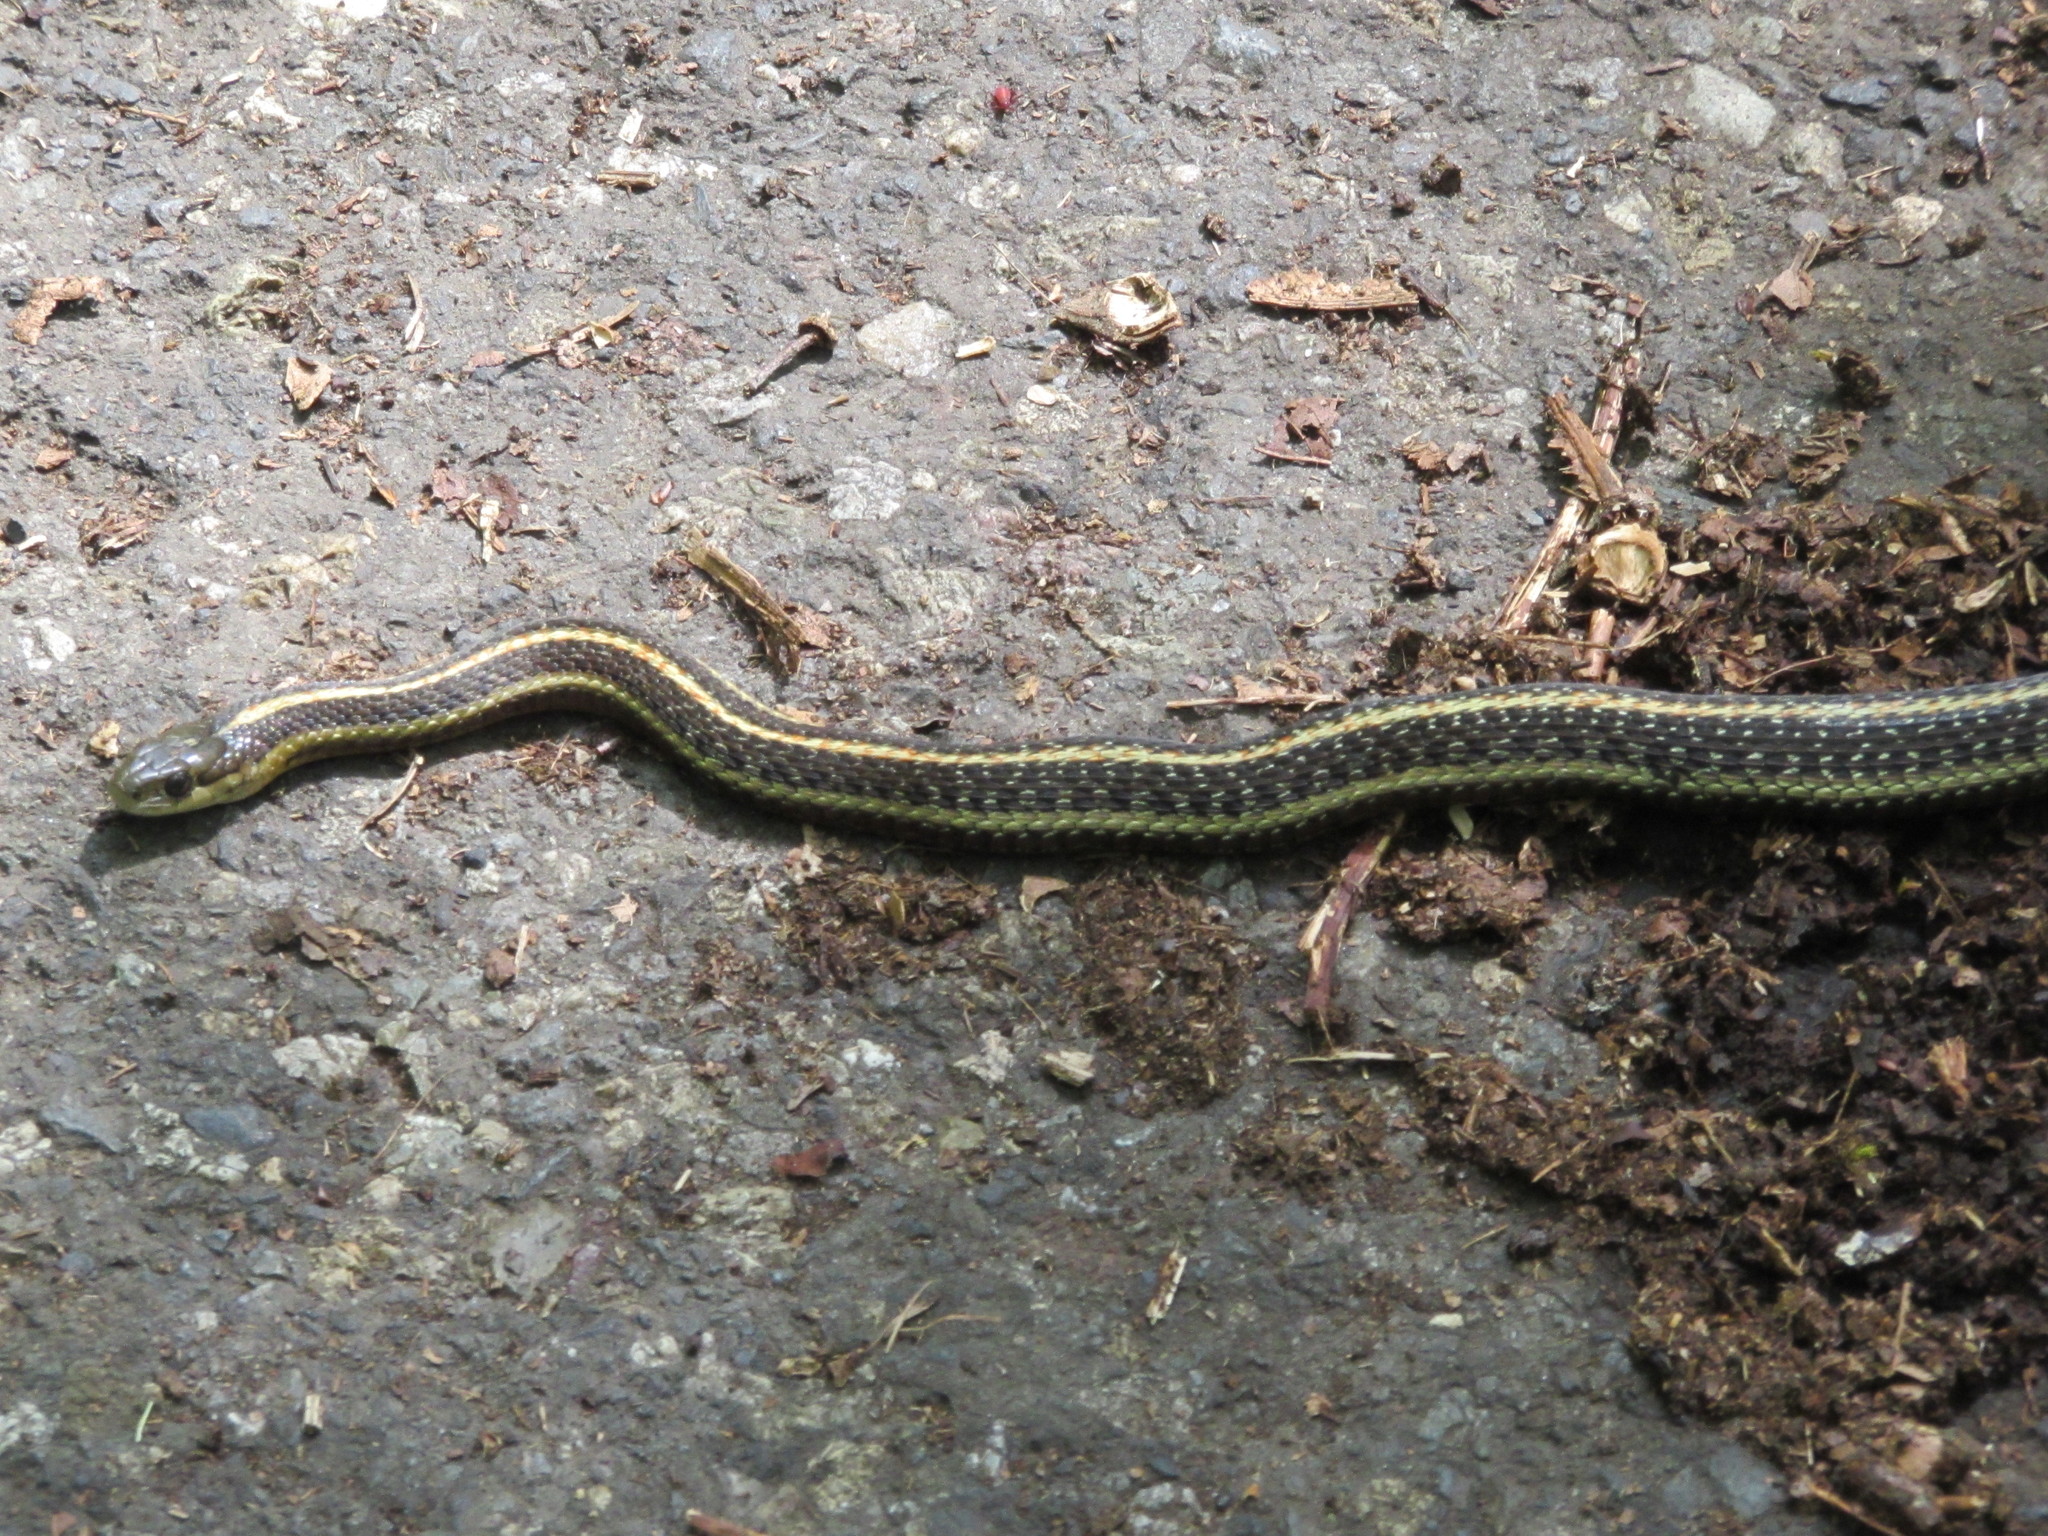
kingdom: Animalia
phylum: Chordata
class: Squamata
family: Colubridae
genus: Thamnophis
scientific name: Thamnophis ordinoides
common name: Northwestern garter snake
